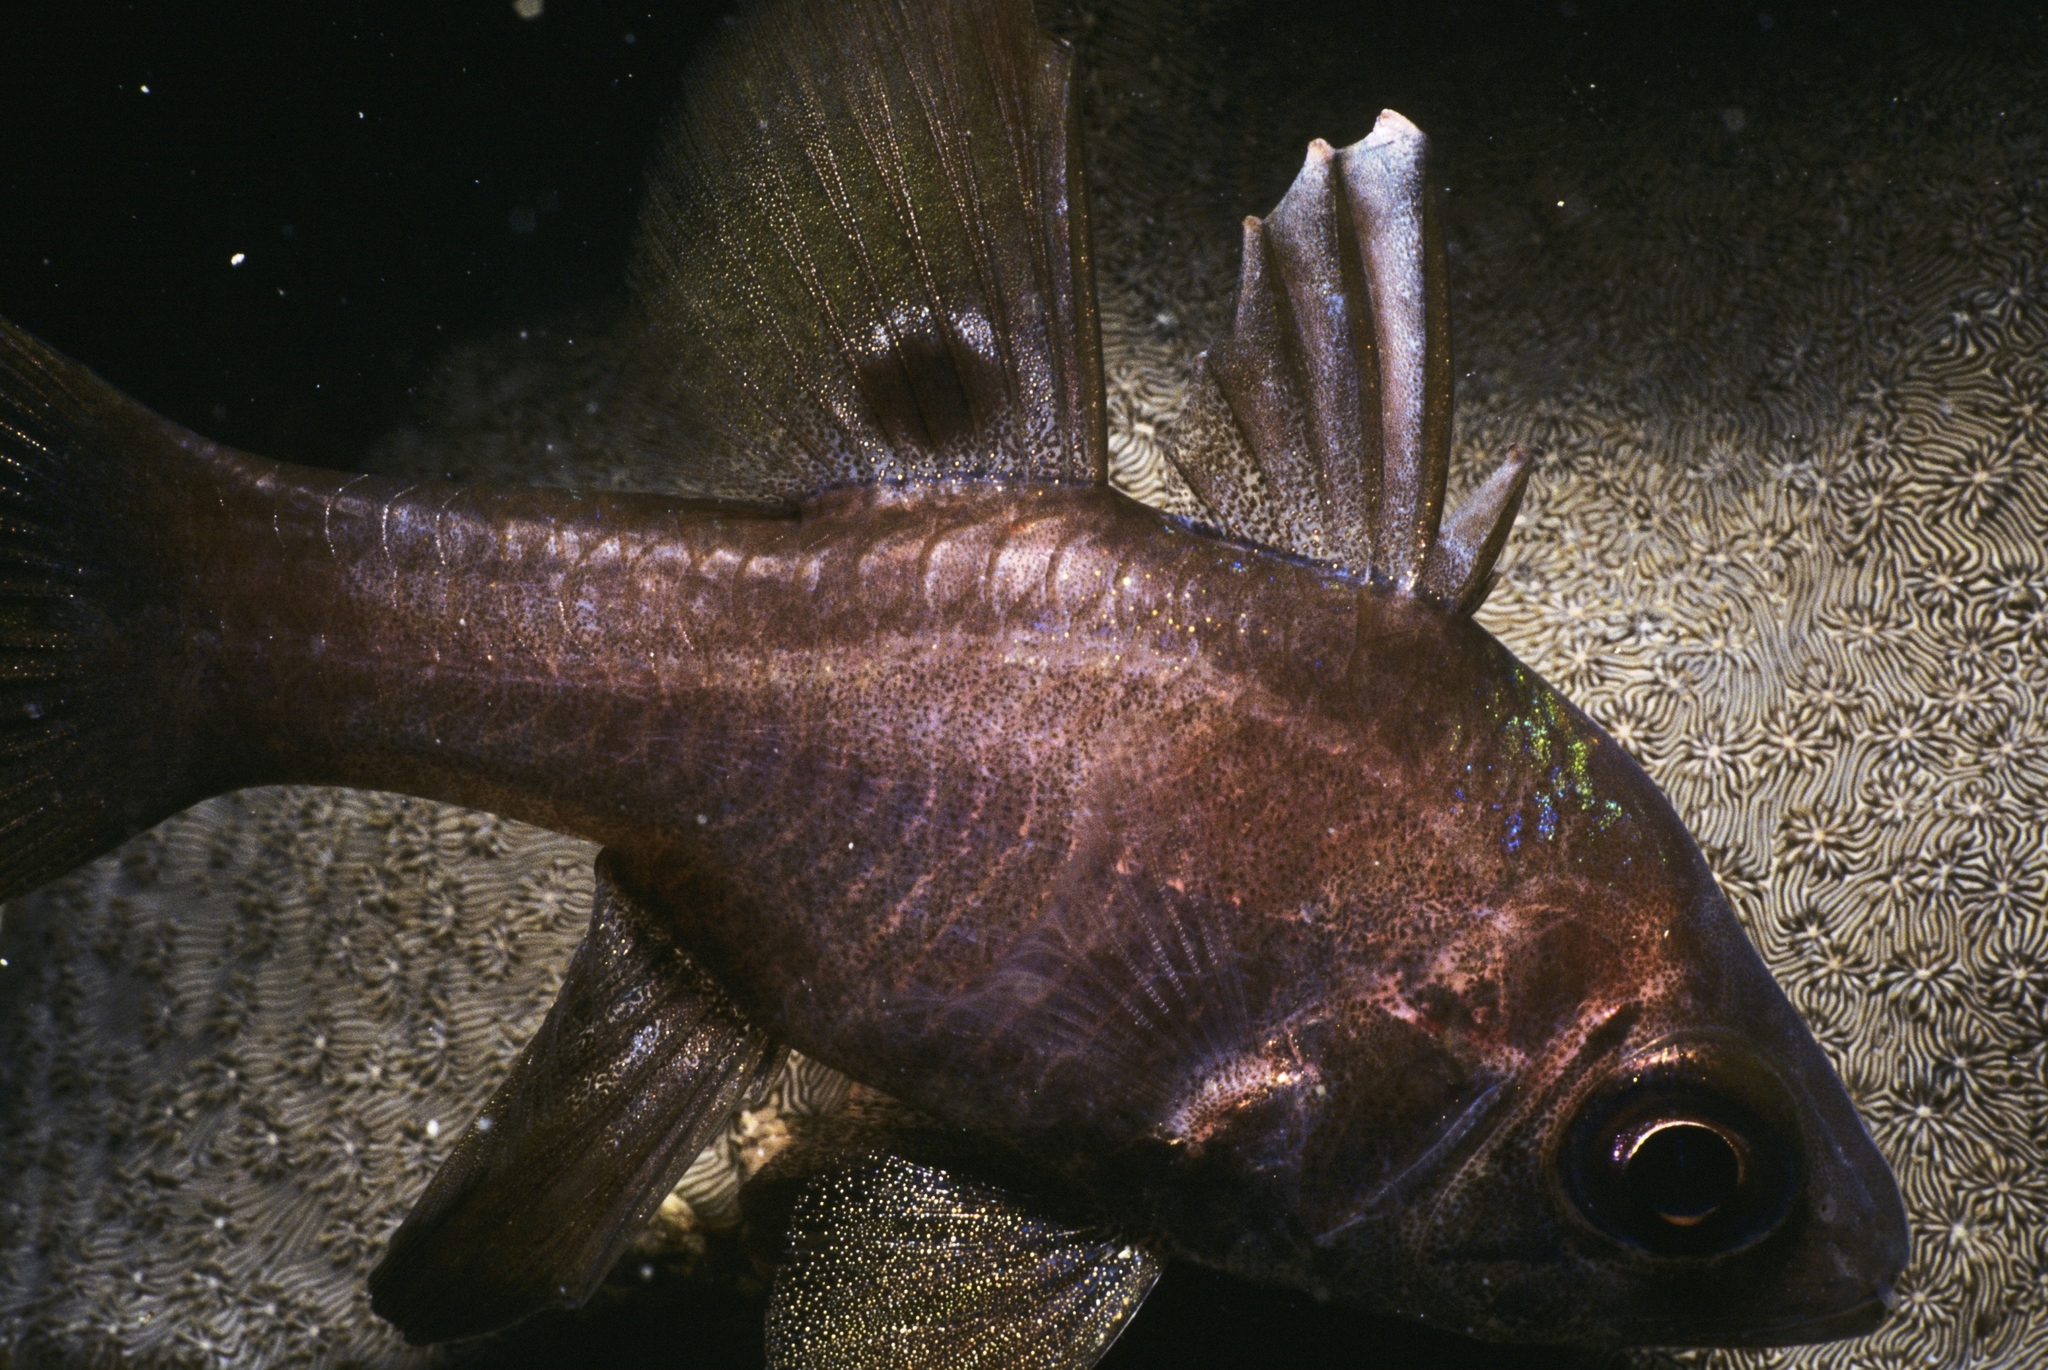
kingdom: Animalia
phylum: Chordata
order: Perciformes
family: Apogonidae
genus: Apogonichthyoides
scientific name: Apogonichthyoides melas
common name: Black cardinalfish
